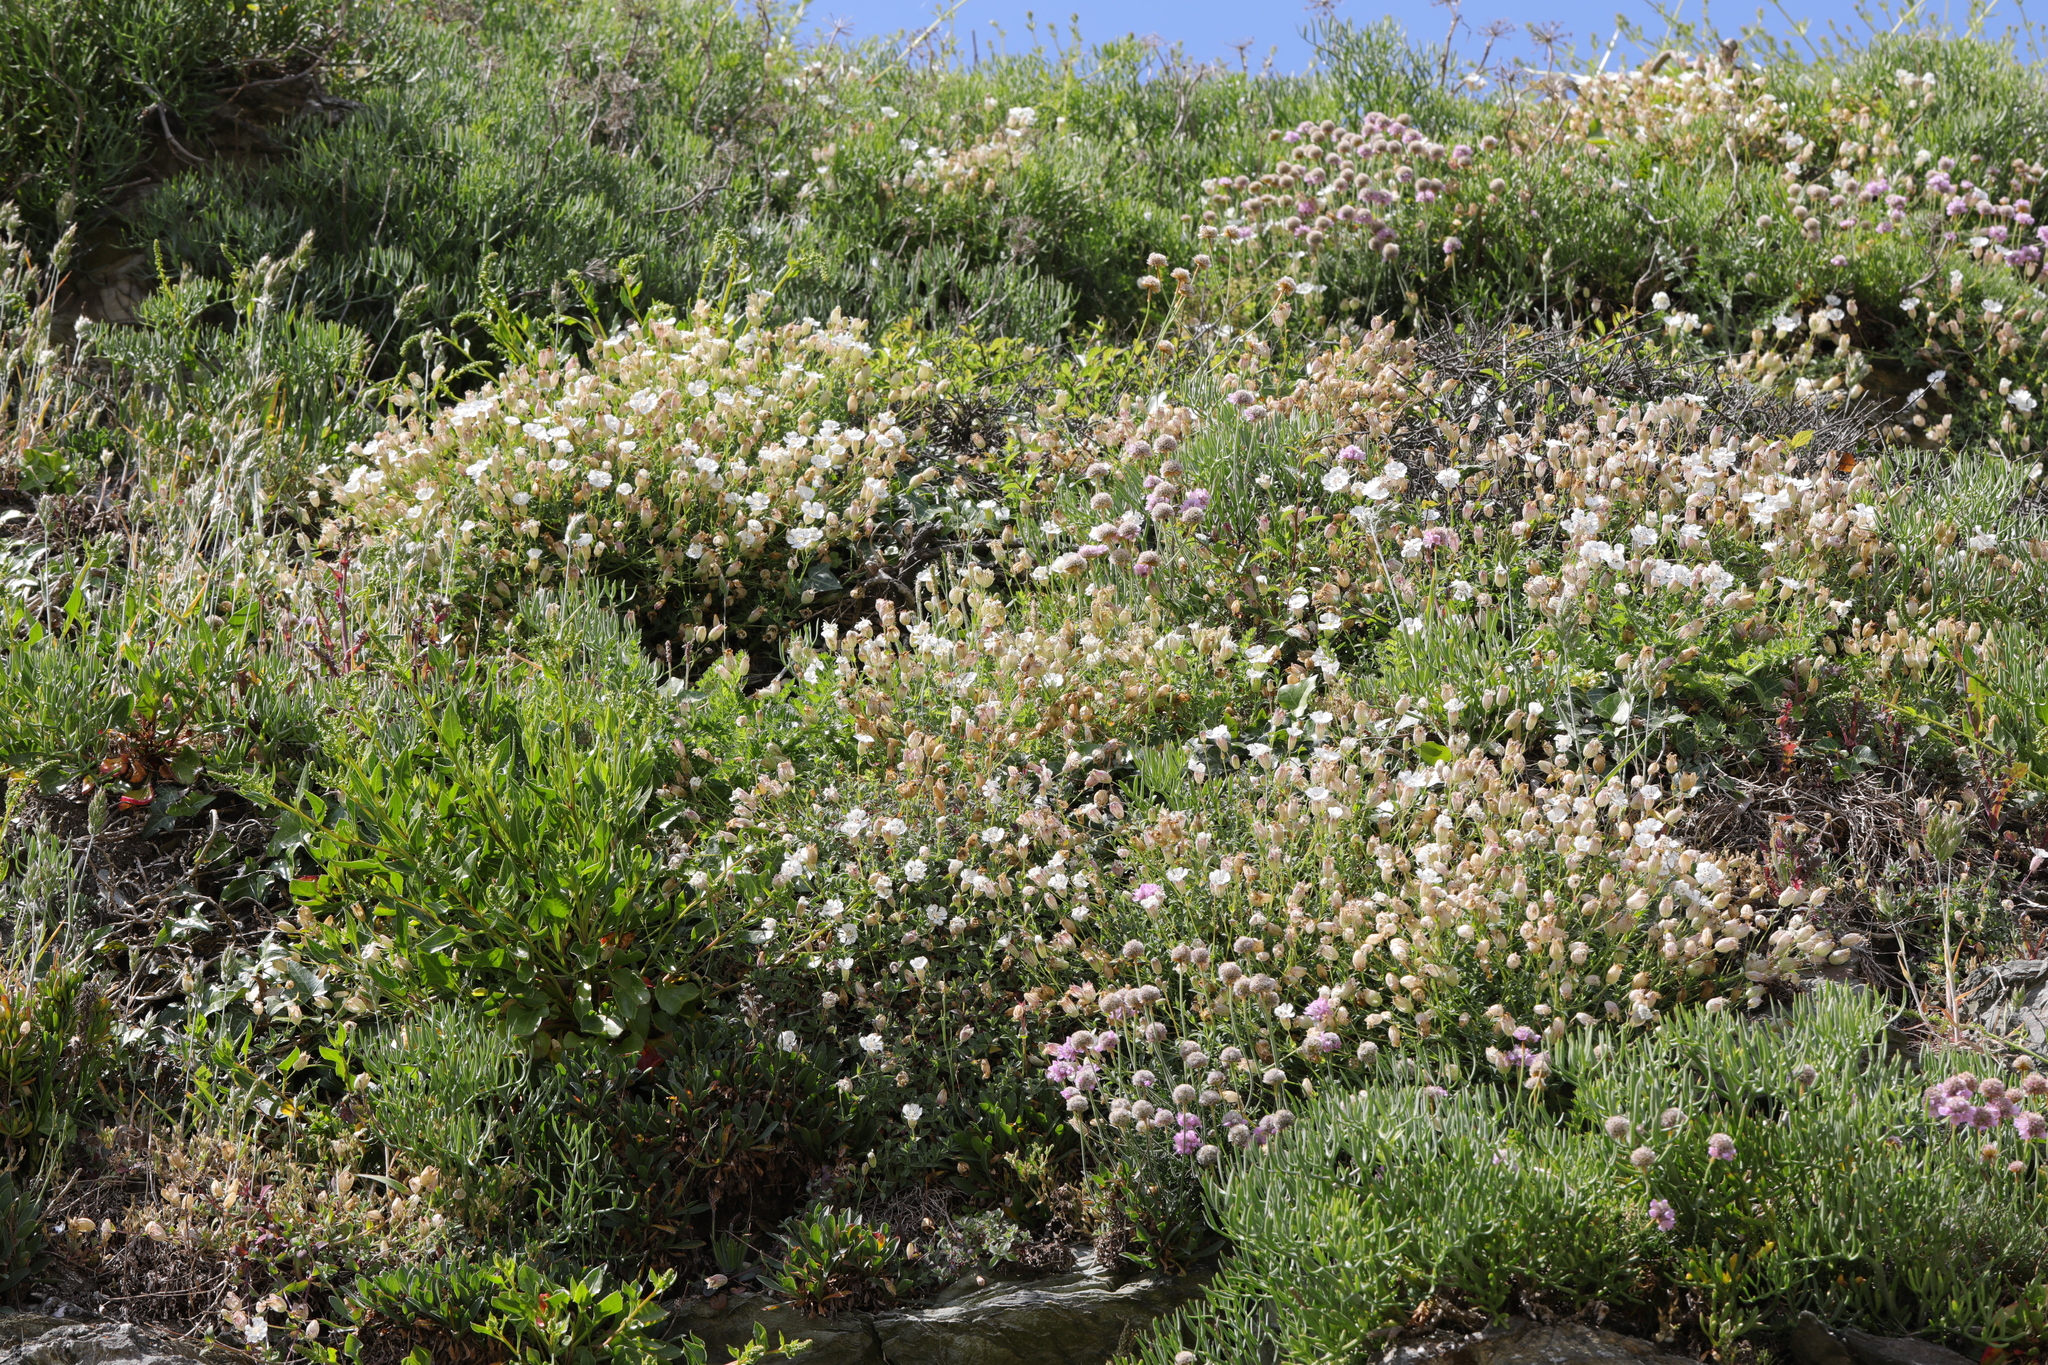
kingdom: Plantae
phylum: Tracheophyta
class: Magnoliopsida
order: Caryophyllales
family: Plumbaginaceae
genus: Armeria
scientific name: Armeria maritima
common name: Thrift
